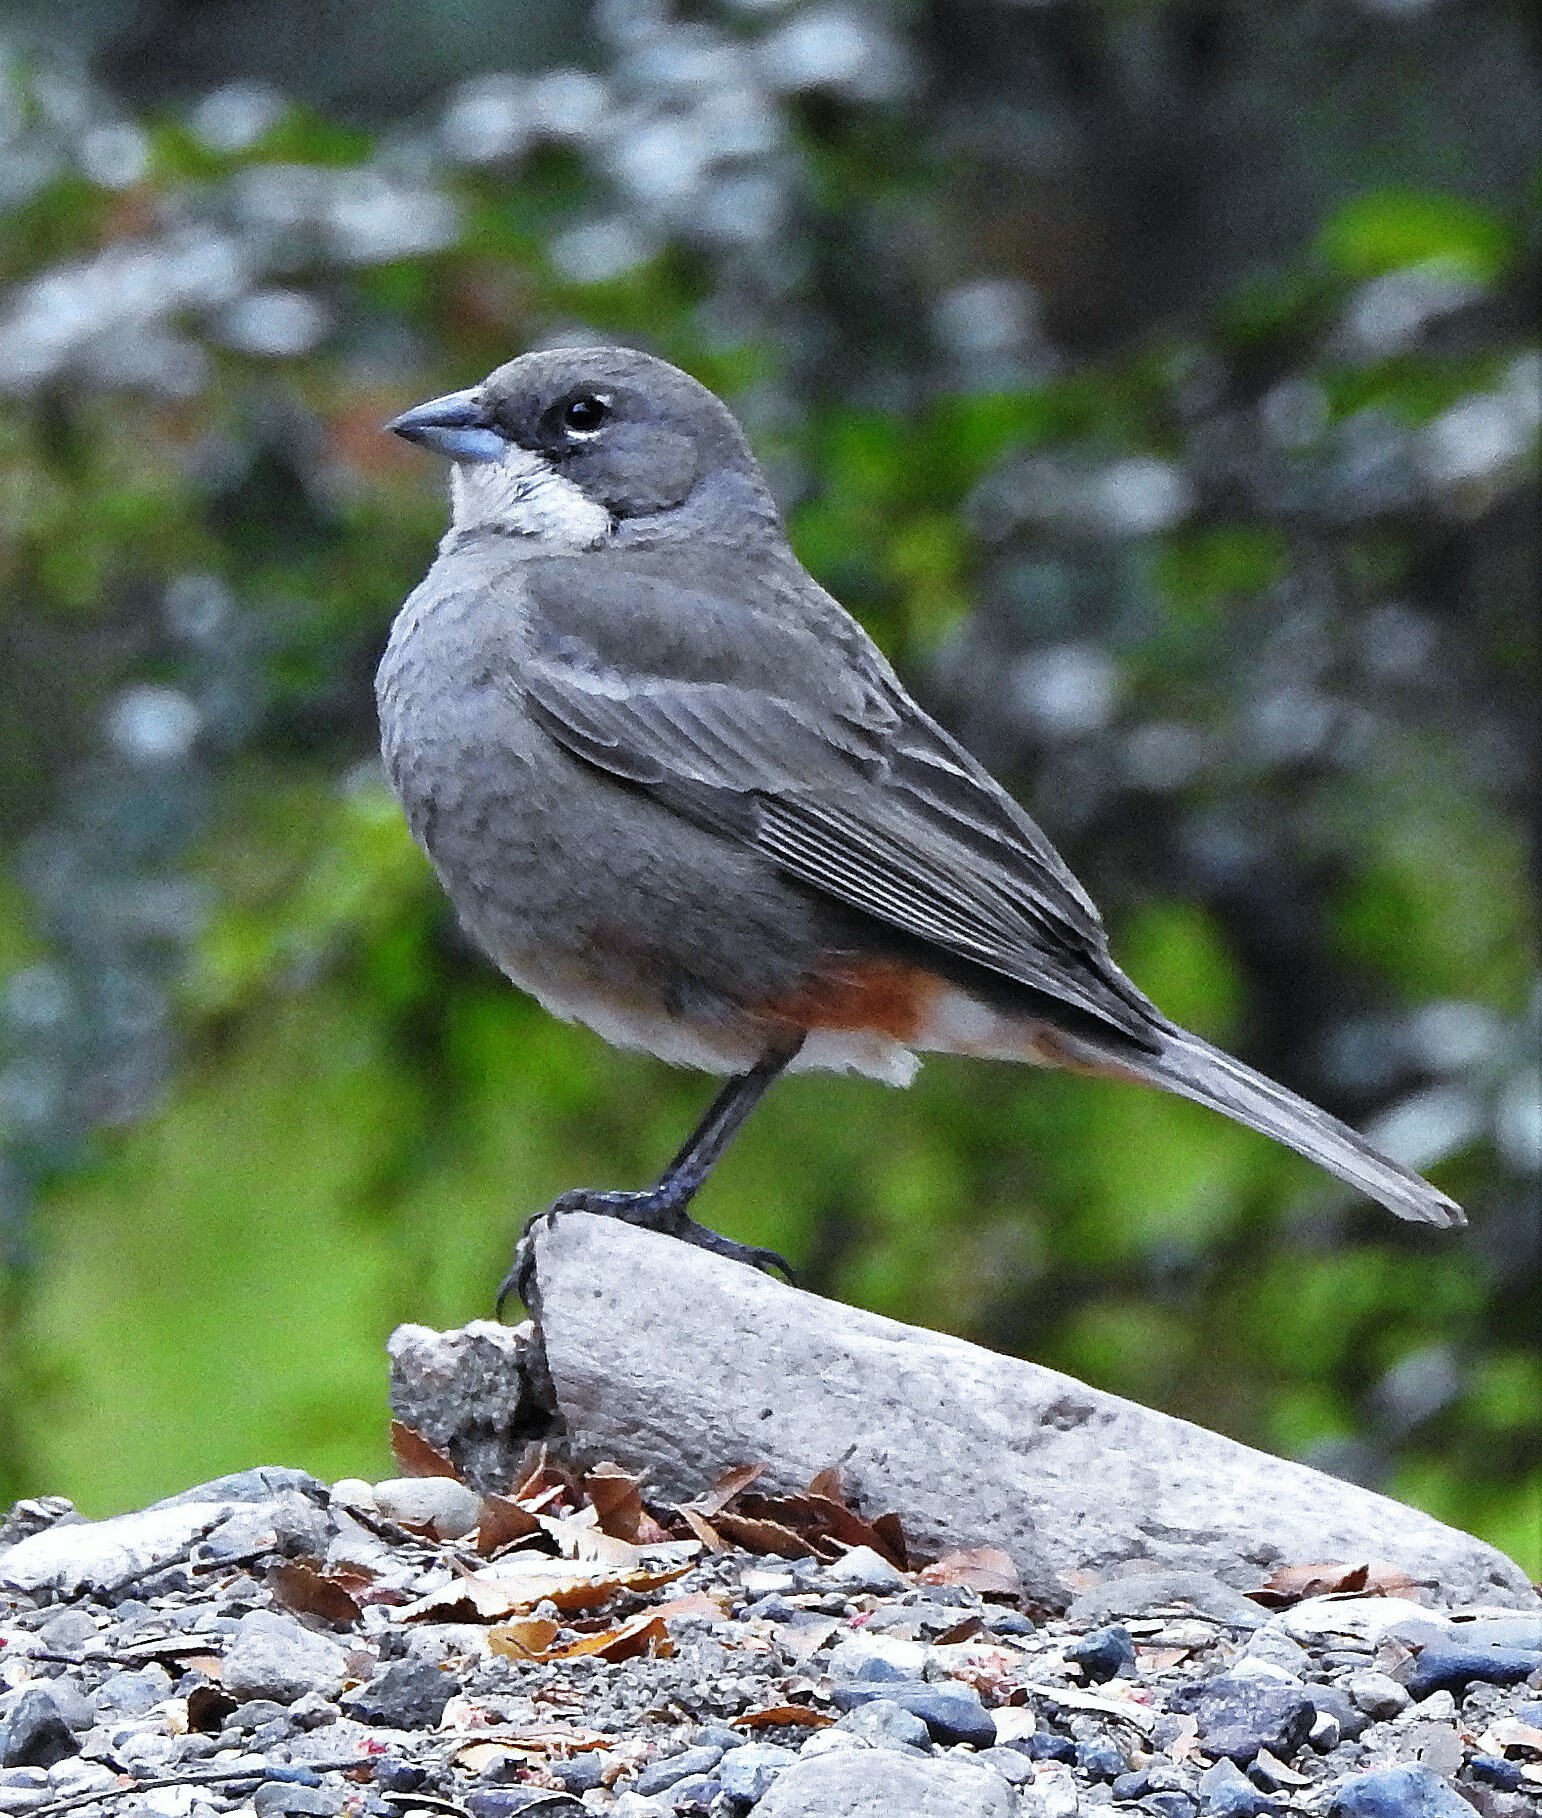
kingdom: Animalia
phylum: Chordata
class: Aves
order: Passeriformes
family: Thraupidae
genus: Diuca
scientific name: Diuca diuca
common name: Common diuca finch
